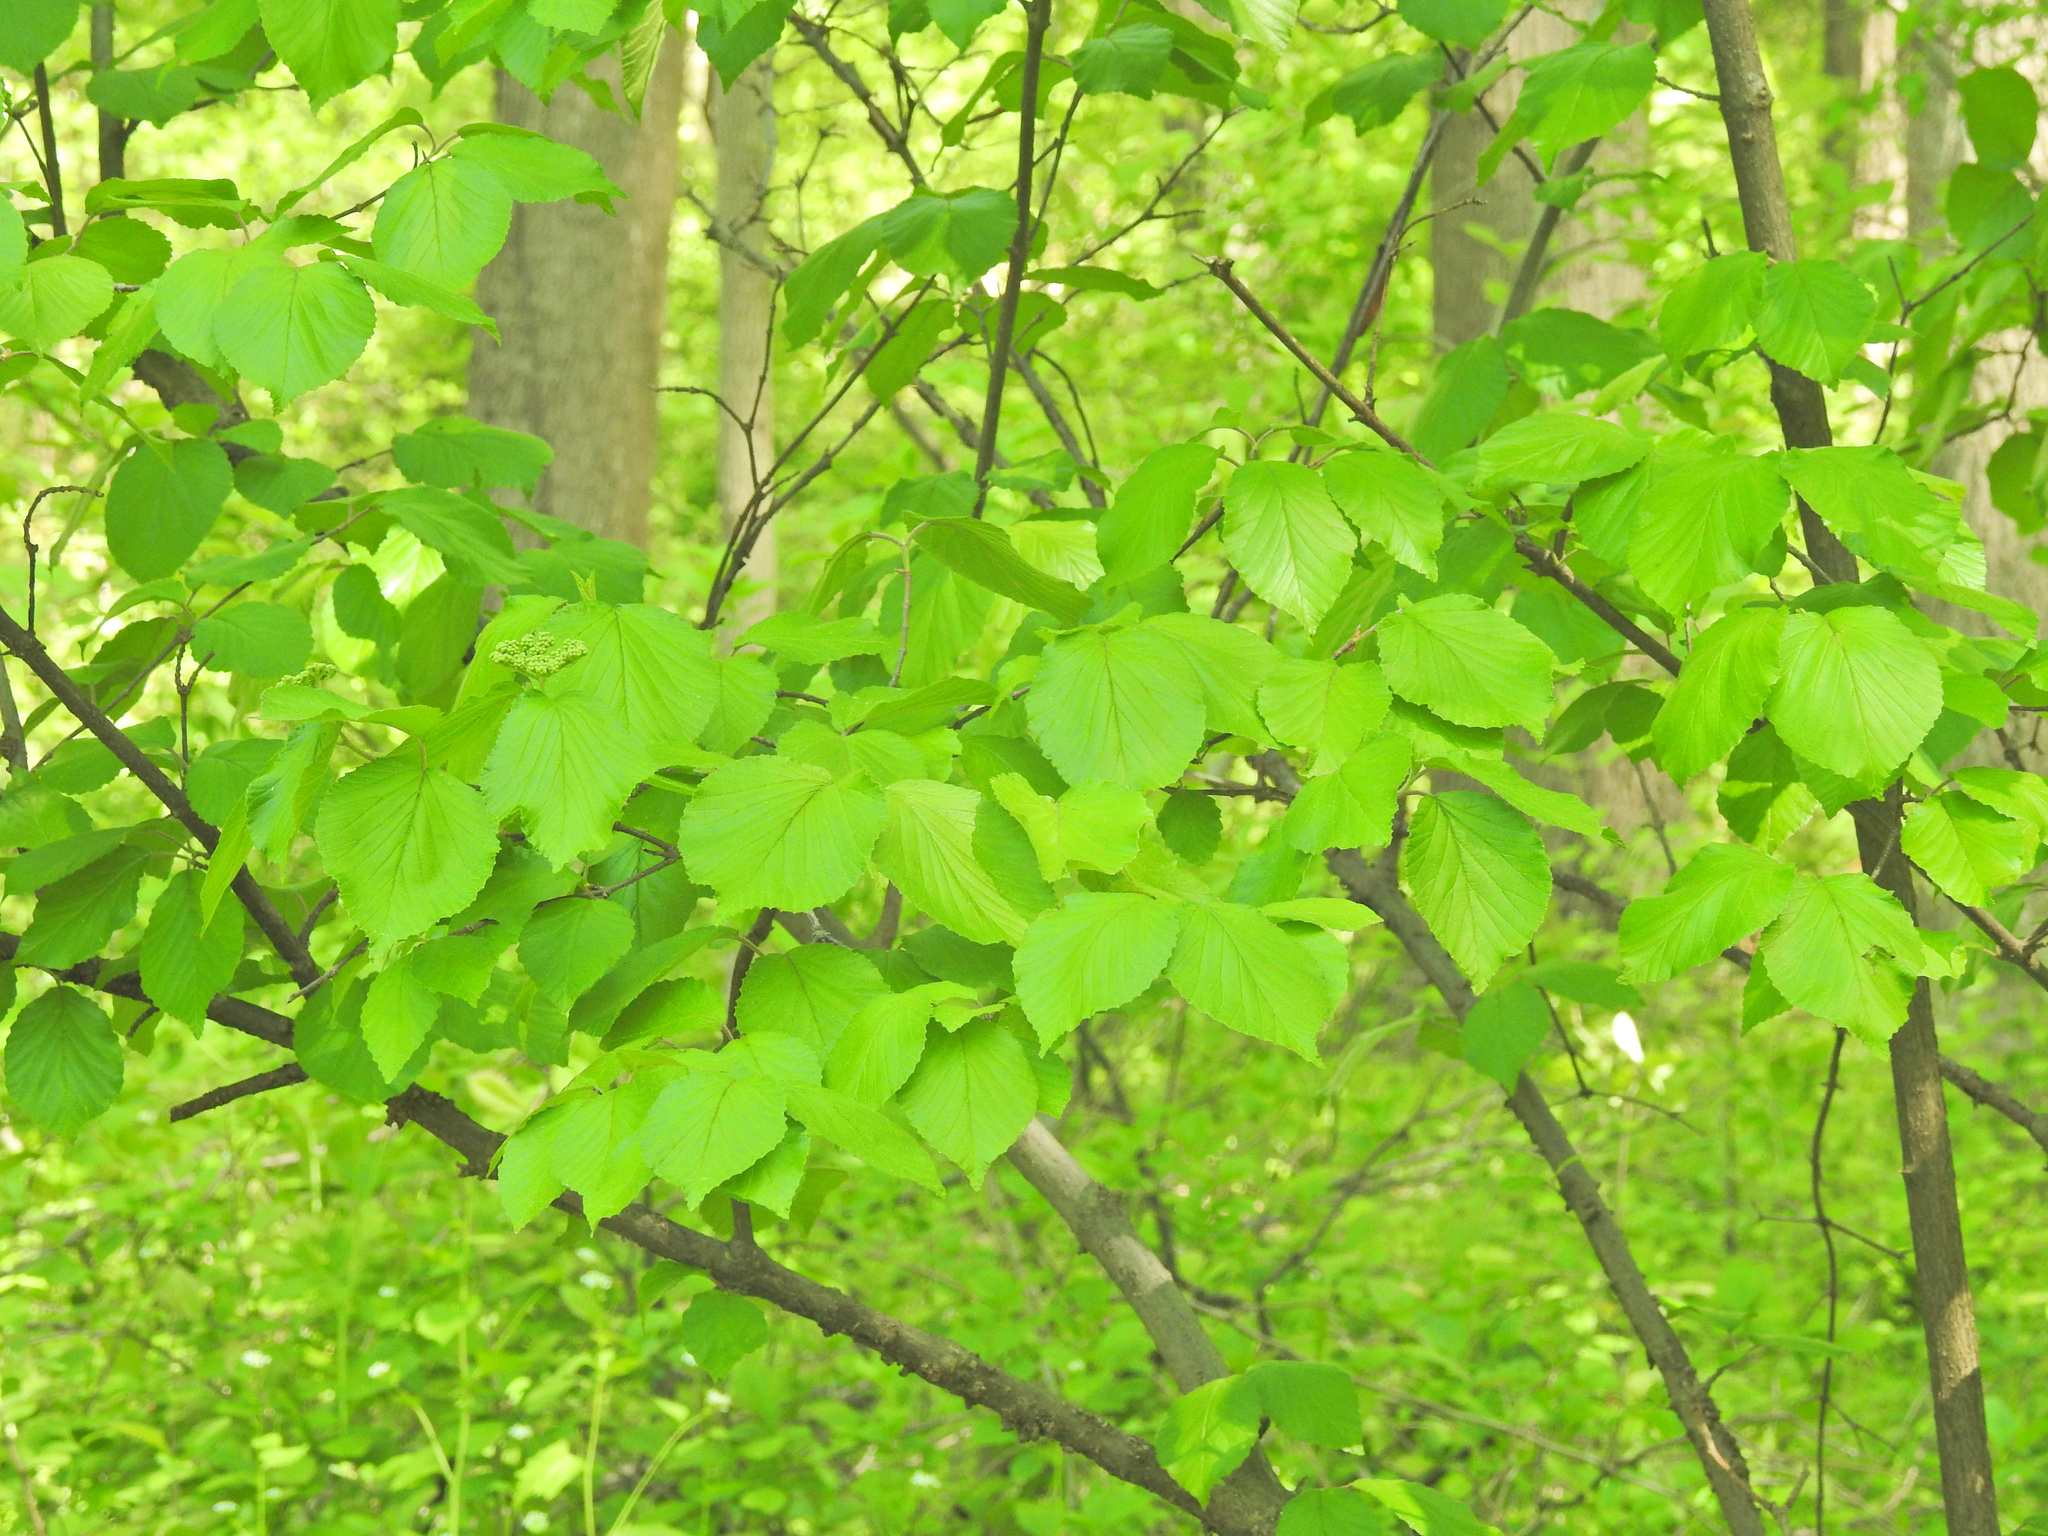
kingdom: Plantae
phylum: Tracheophyta
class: Magnoliopsida
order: Dipsacales
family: Viburnaceae
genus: Viburnum
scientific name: Viburnum dilatatum
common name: Linden arrowwood
